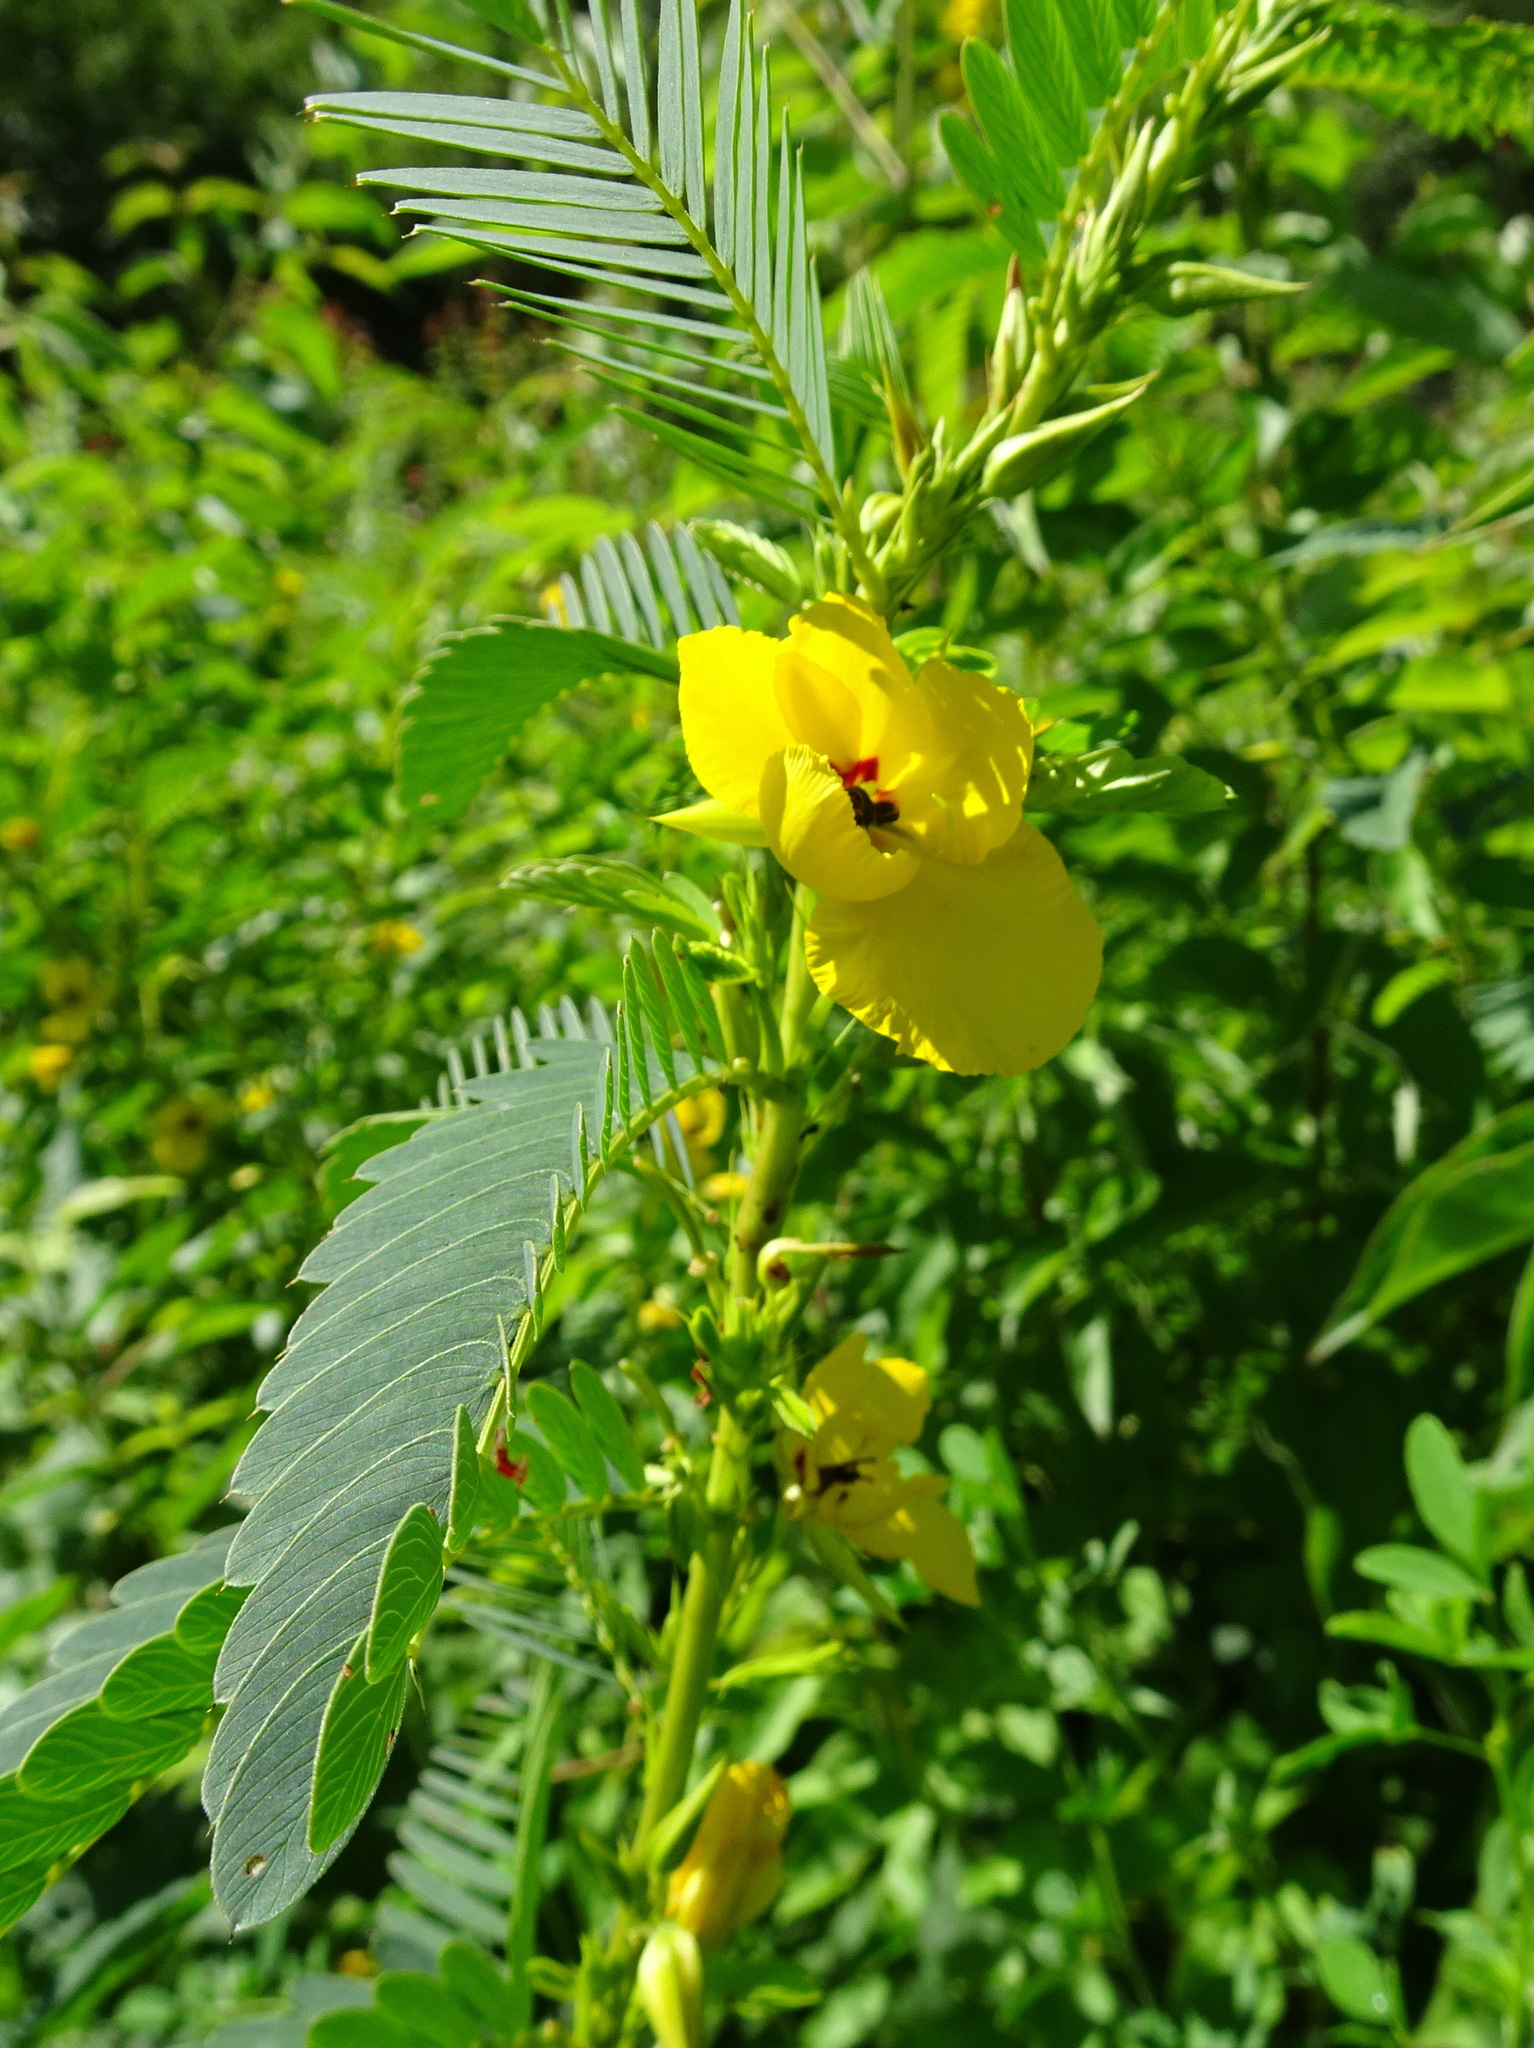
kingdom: Plantae
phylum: Tracheophyta
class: Magnoliopsida
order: Fabales
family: Fabaceae
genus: Chamaecrista
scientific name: Chamaecrista fasciculata
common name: Golden cassia
